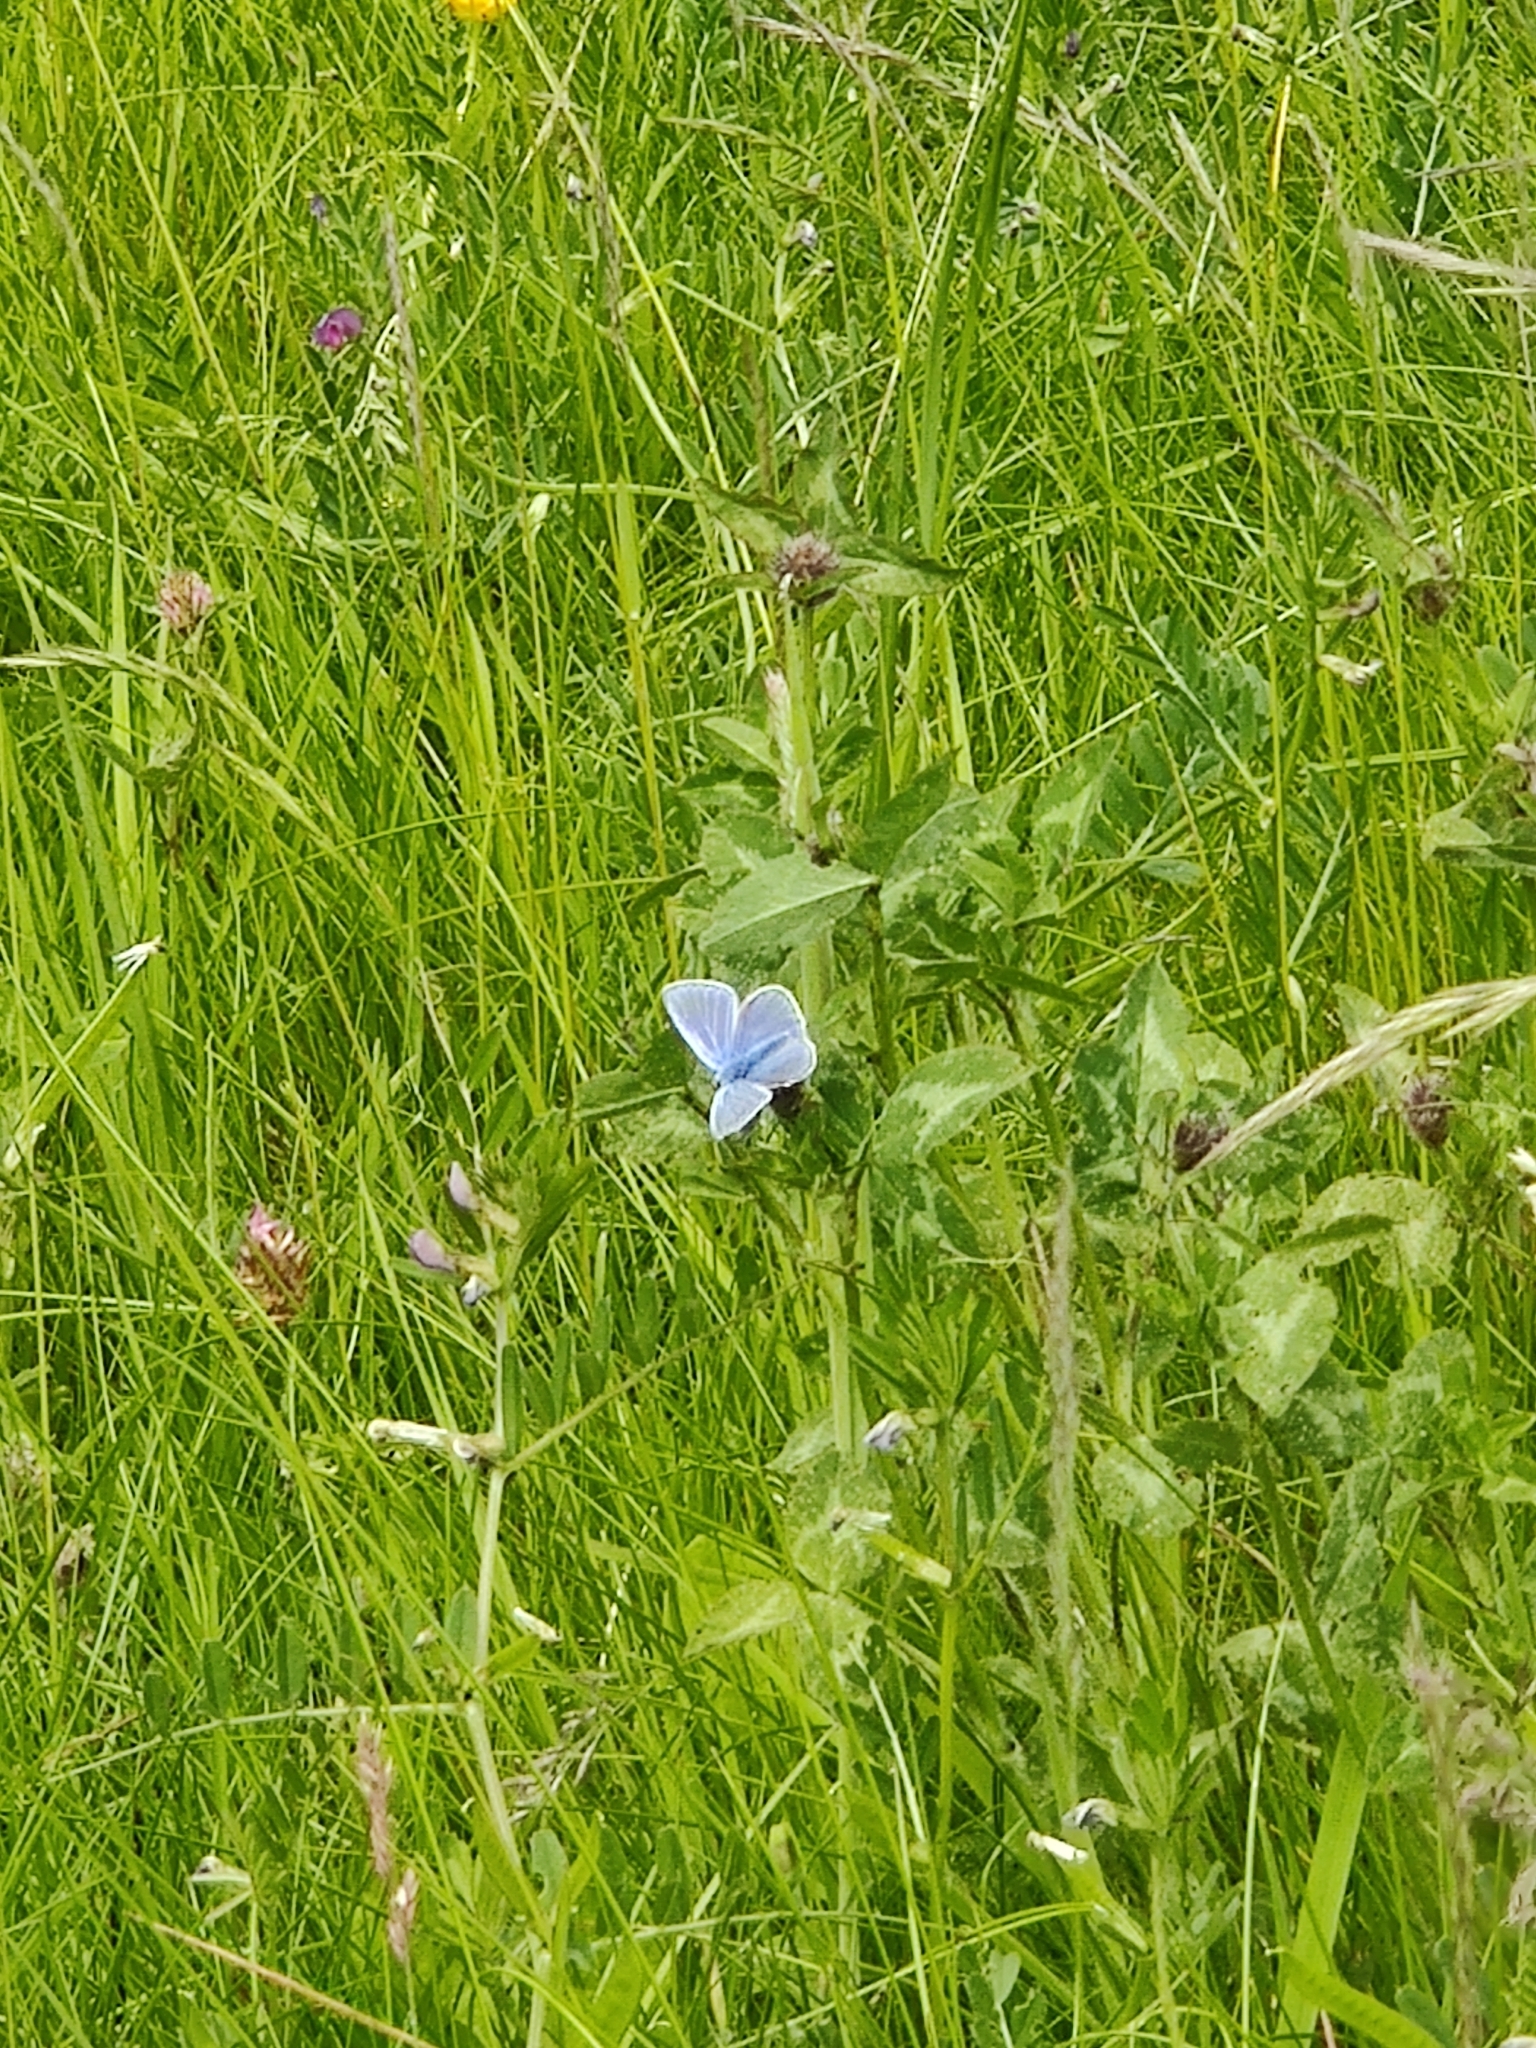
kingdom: Animalia
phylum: Arthropoda
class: Insecta
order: Lepidoptera
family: Lycaenidae
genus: Polyommatus
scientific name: Polyommatus icarus
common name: Common blue
